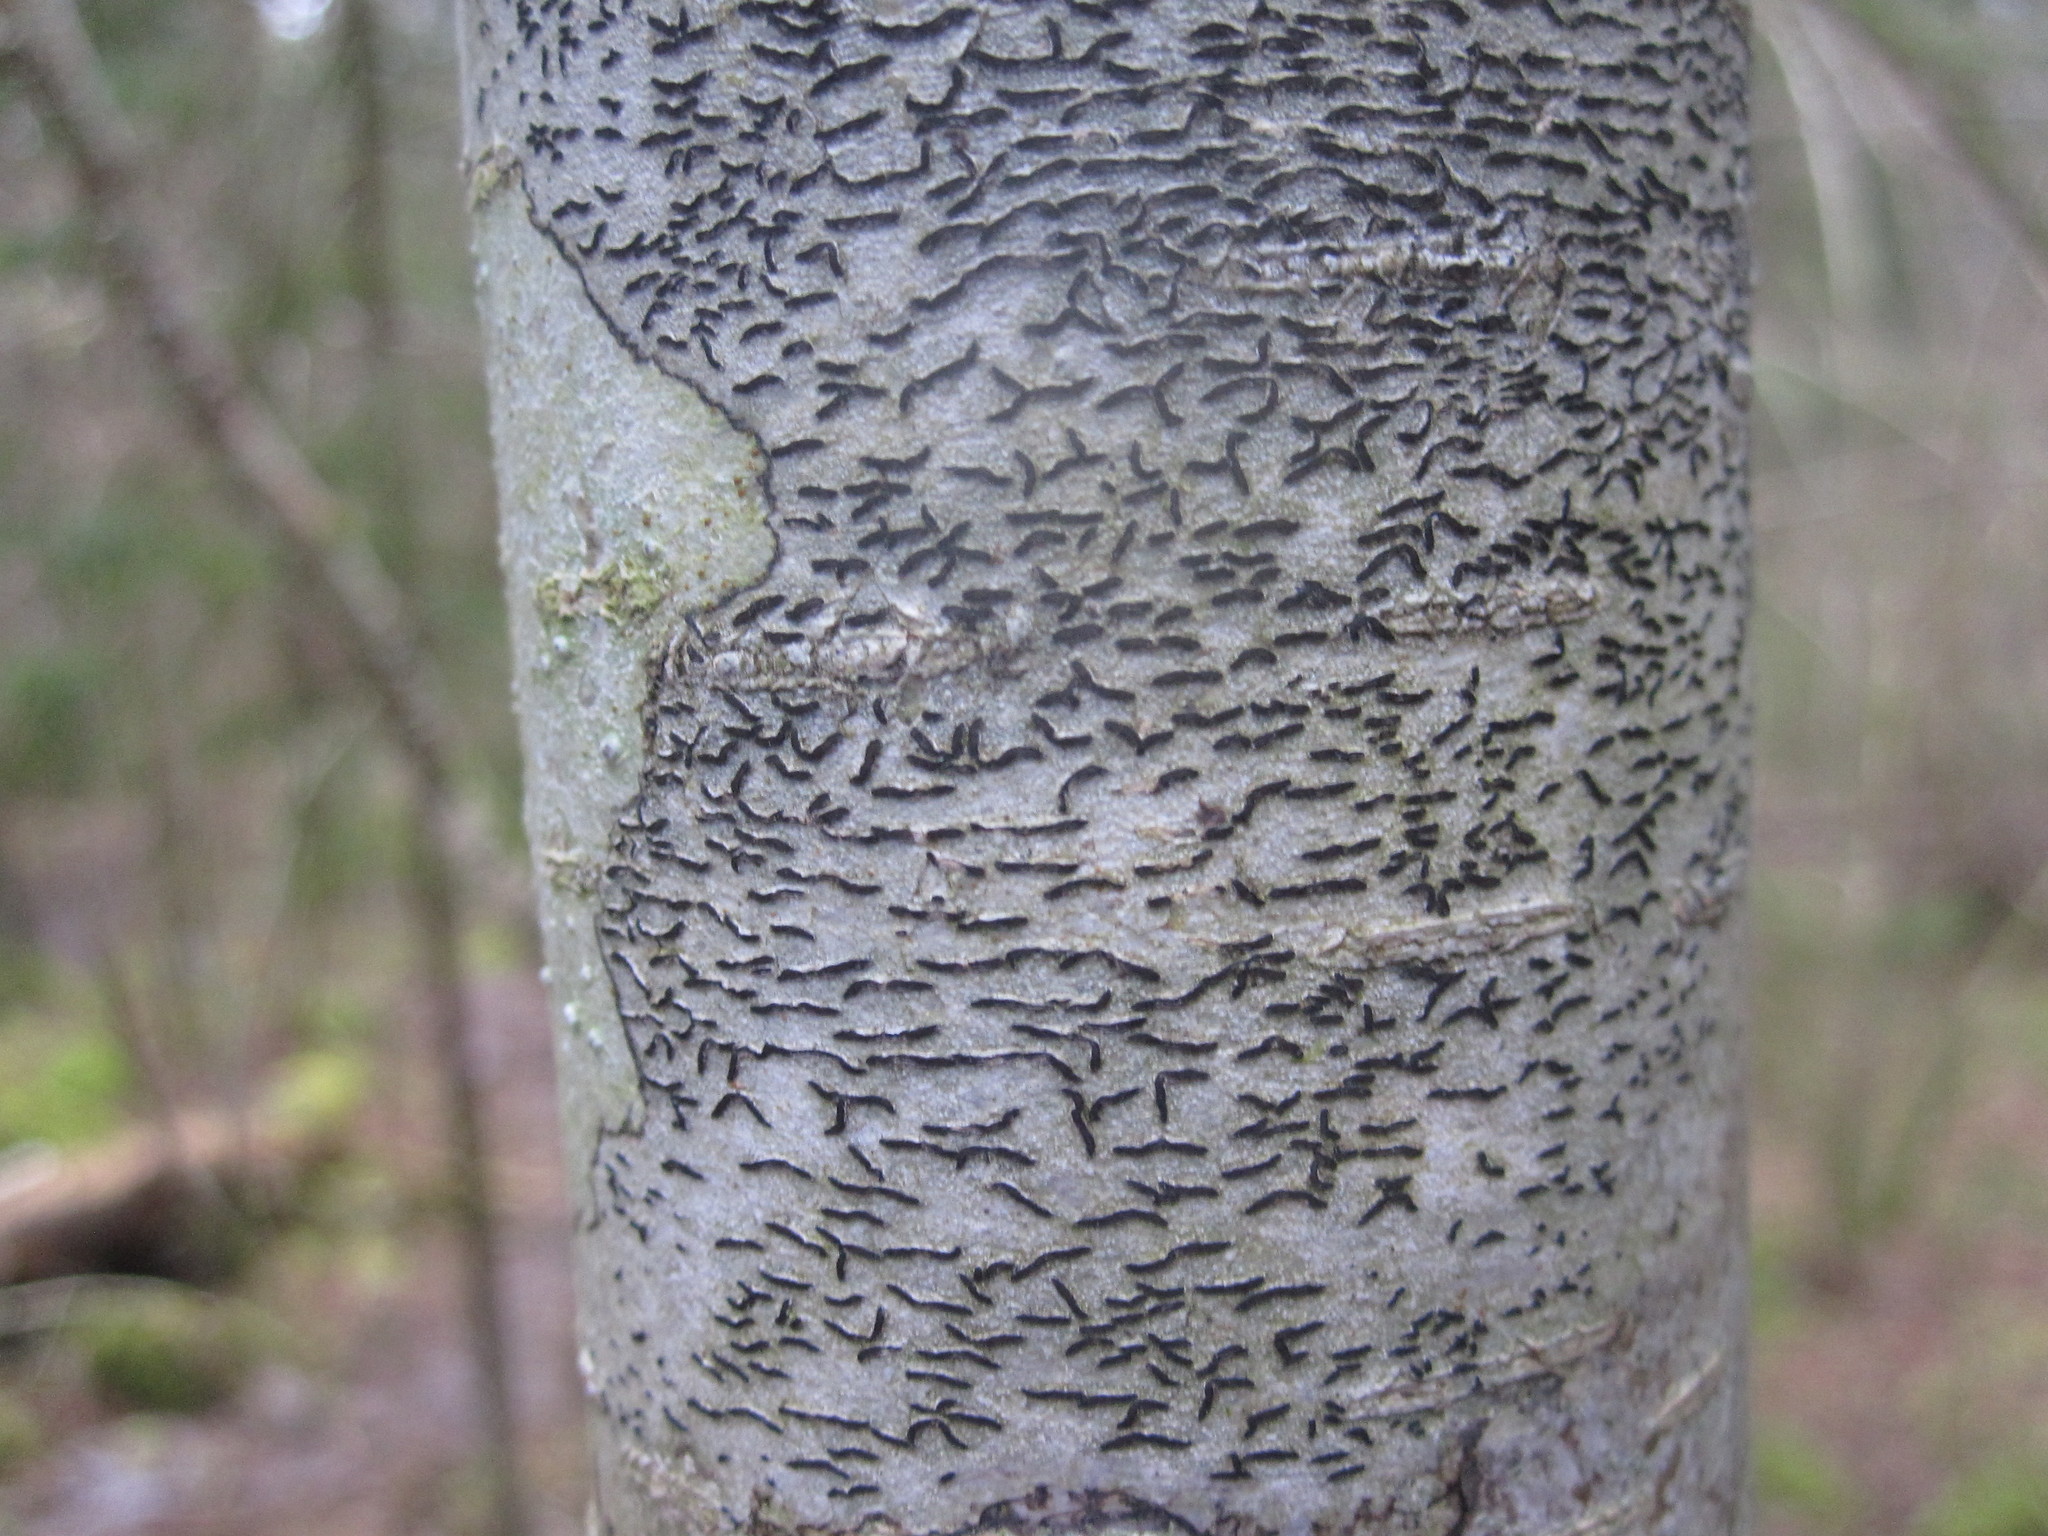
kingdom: Fungi
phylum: Ascomycota
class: Lecanoromycetes
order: Ostropales
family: Graphidaceae
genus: Graphis
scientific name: Graphis scripta
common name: Script lichen
